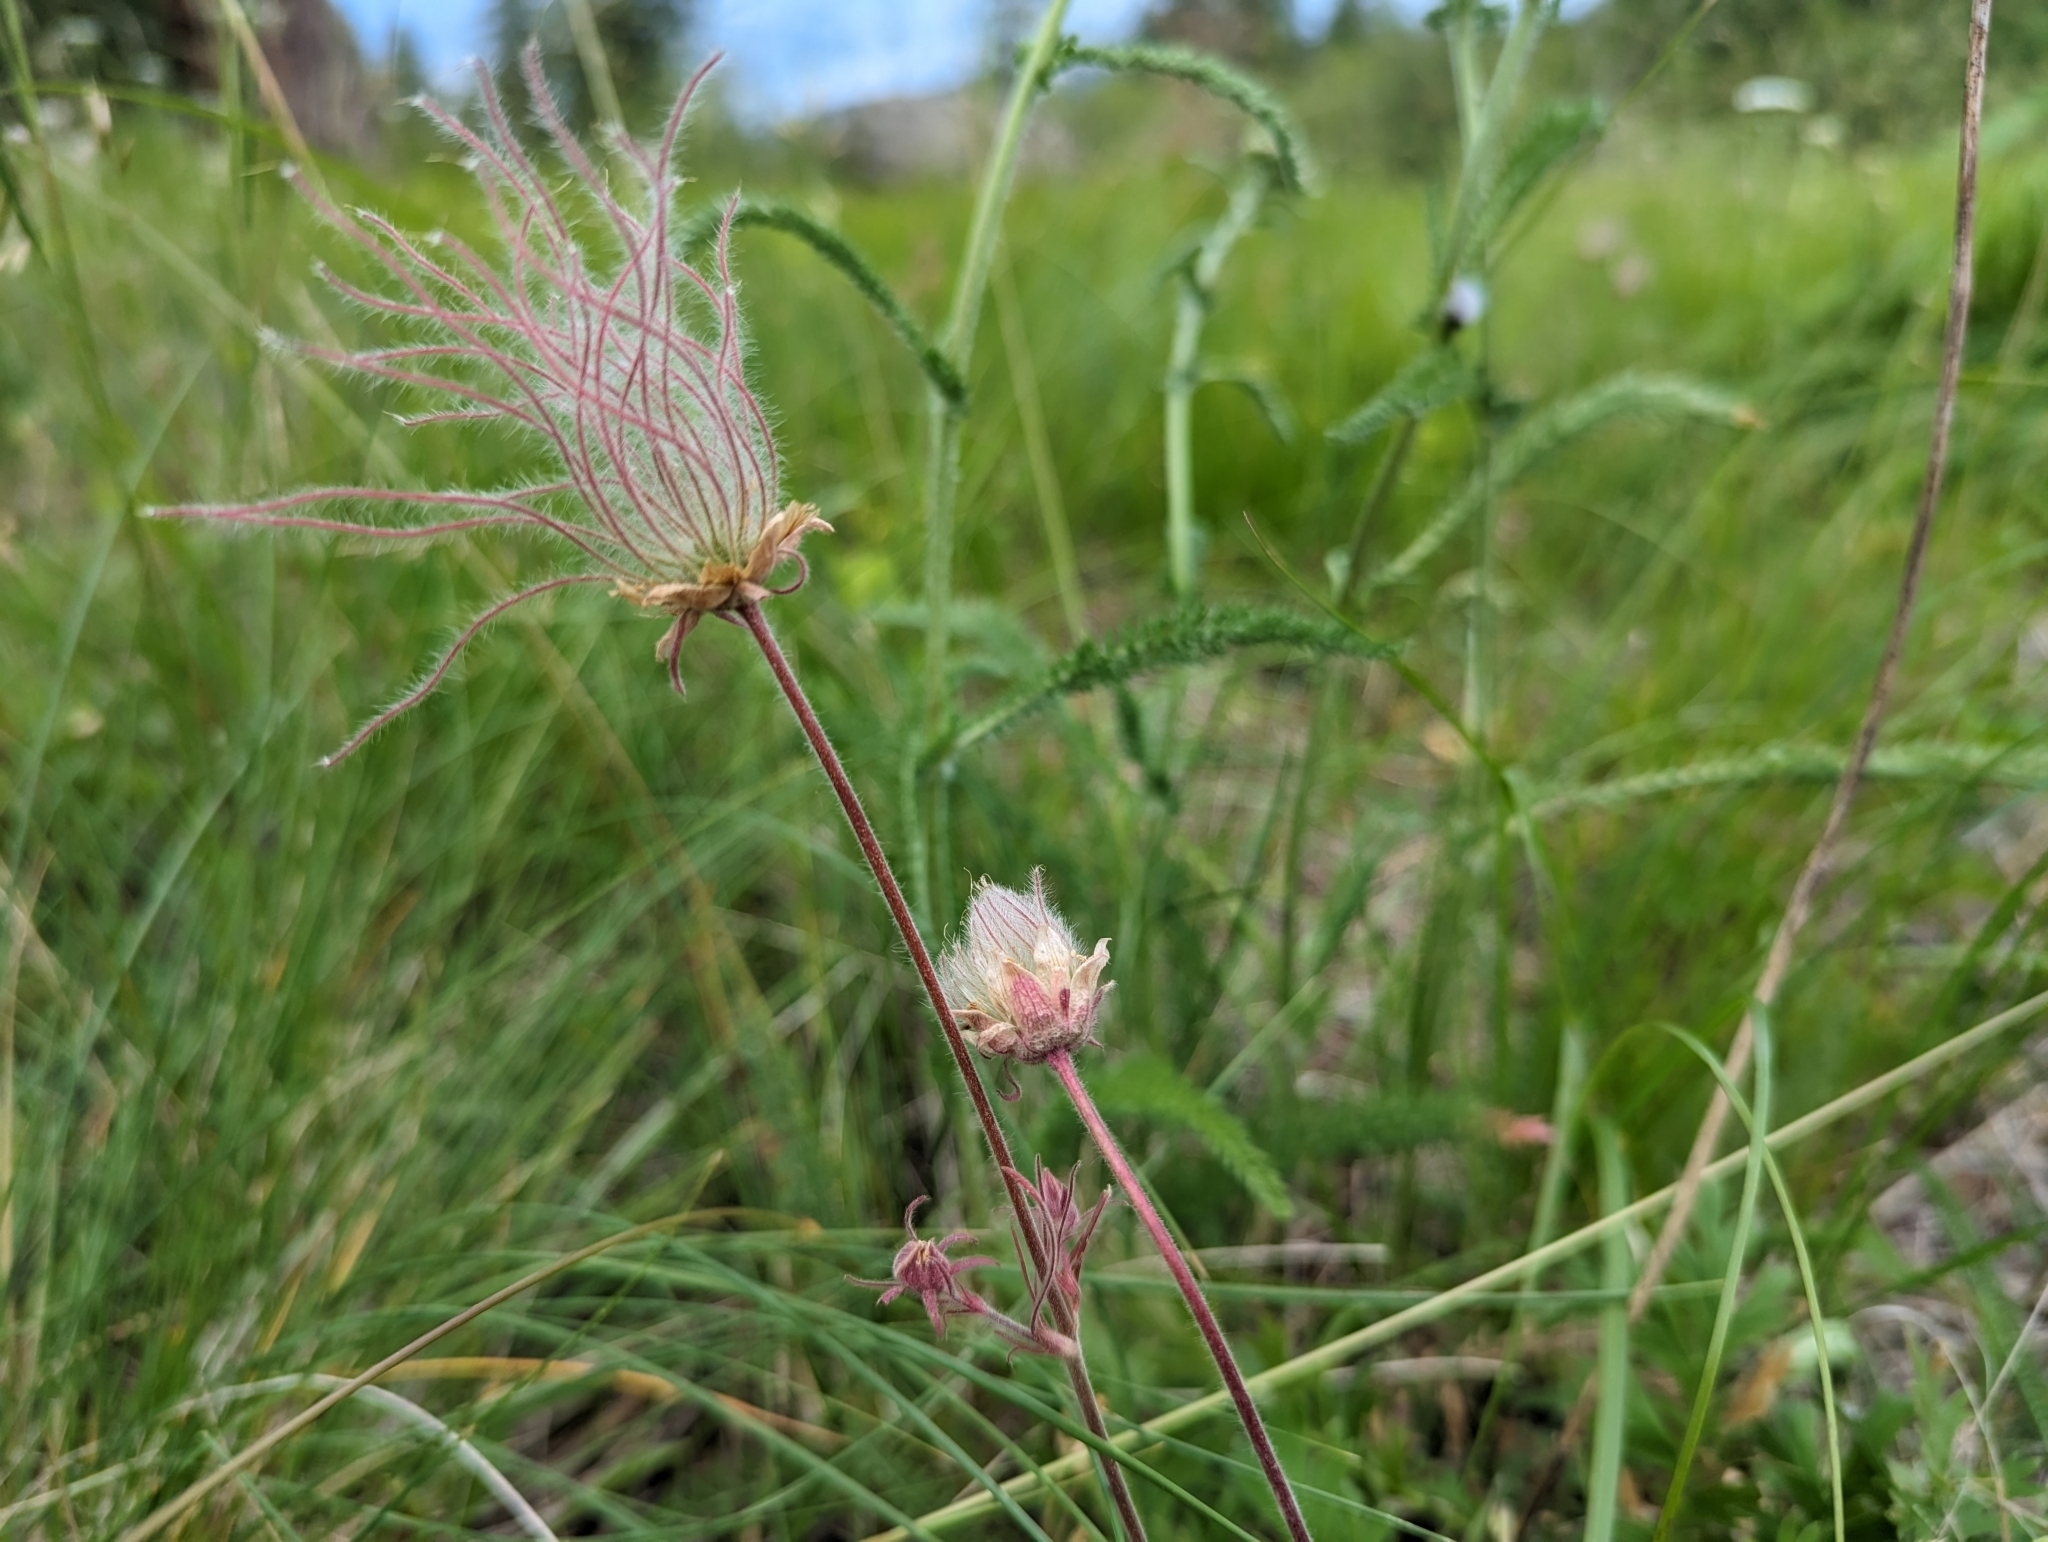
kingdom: Plantae
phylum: Tracheophyta
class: Magnoliopsida
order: Rosales
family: Rosaceae
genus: Geum
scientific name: Geum triflorum
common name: Old man's whiskers
